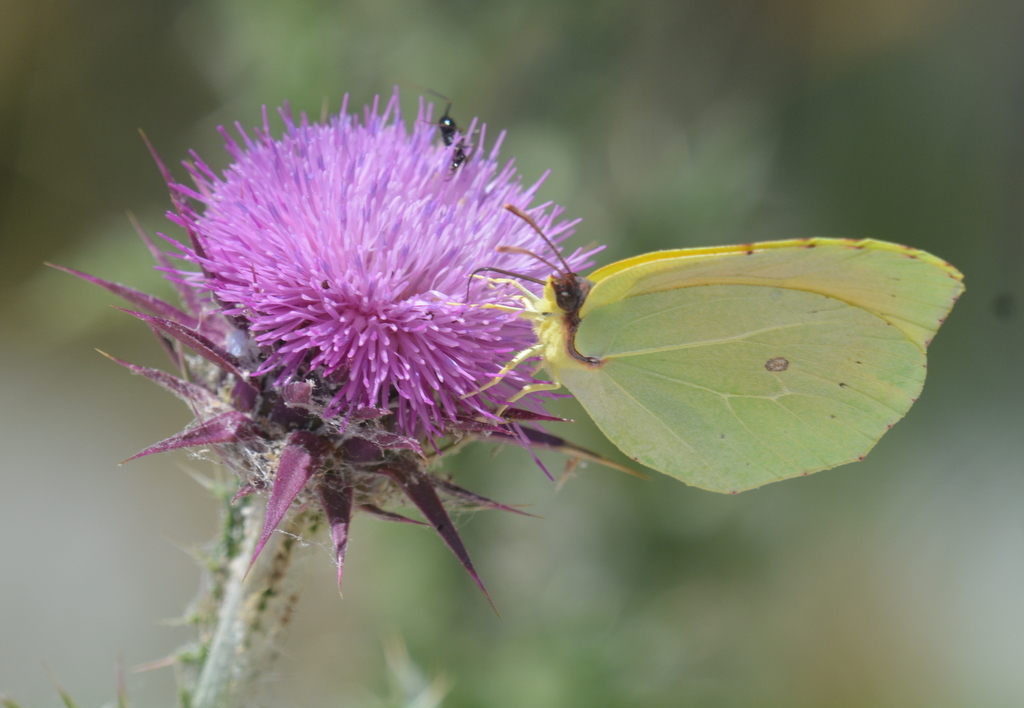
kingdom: Animalia
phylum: Arthropoda
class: Insecta
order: Lepidoptera
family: Pieridae
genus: Gonepteryx
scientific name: Gonepteryx cleopatra
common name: Cleopatra
